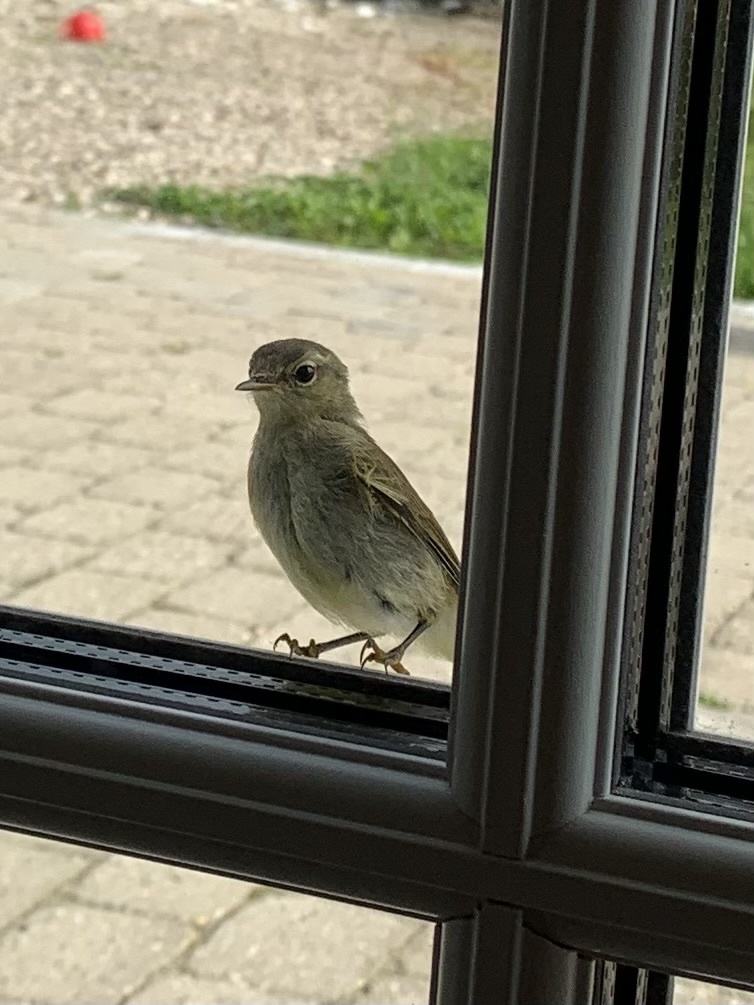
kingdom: Animalia
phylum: Chordata
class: Aves
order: Passeriformes
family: Phylloscopidae
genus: Phylloscopus
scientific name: Phylloscopus collybita
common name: Common chiffchaff
